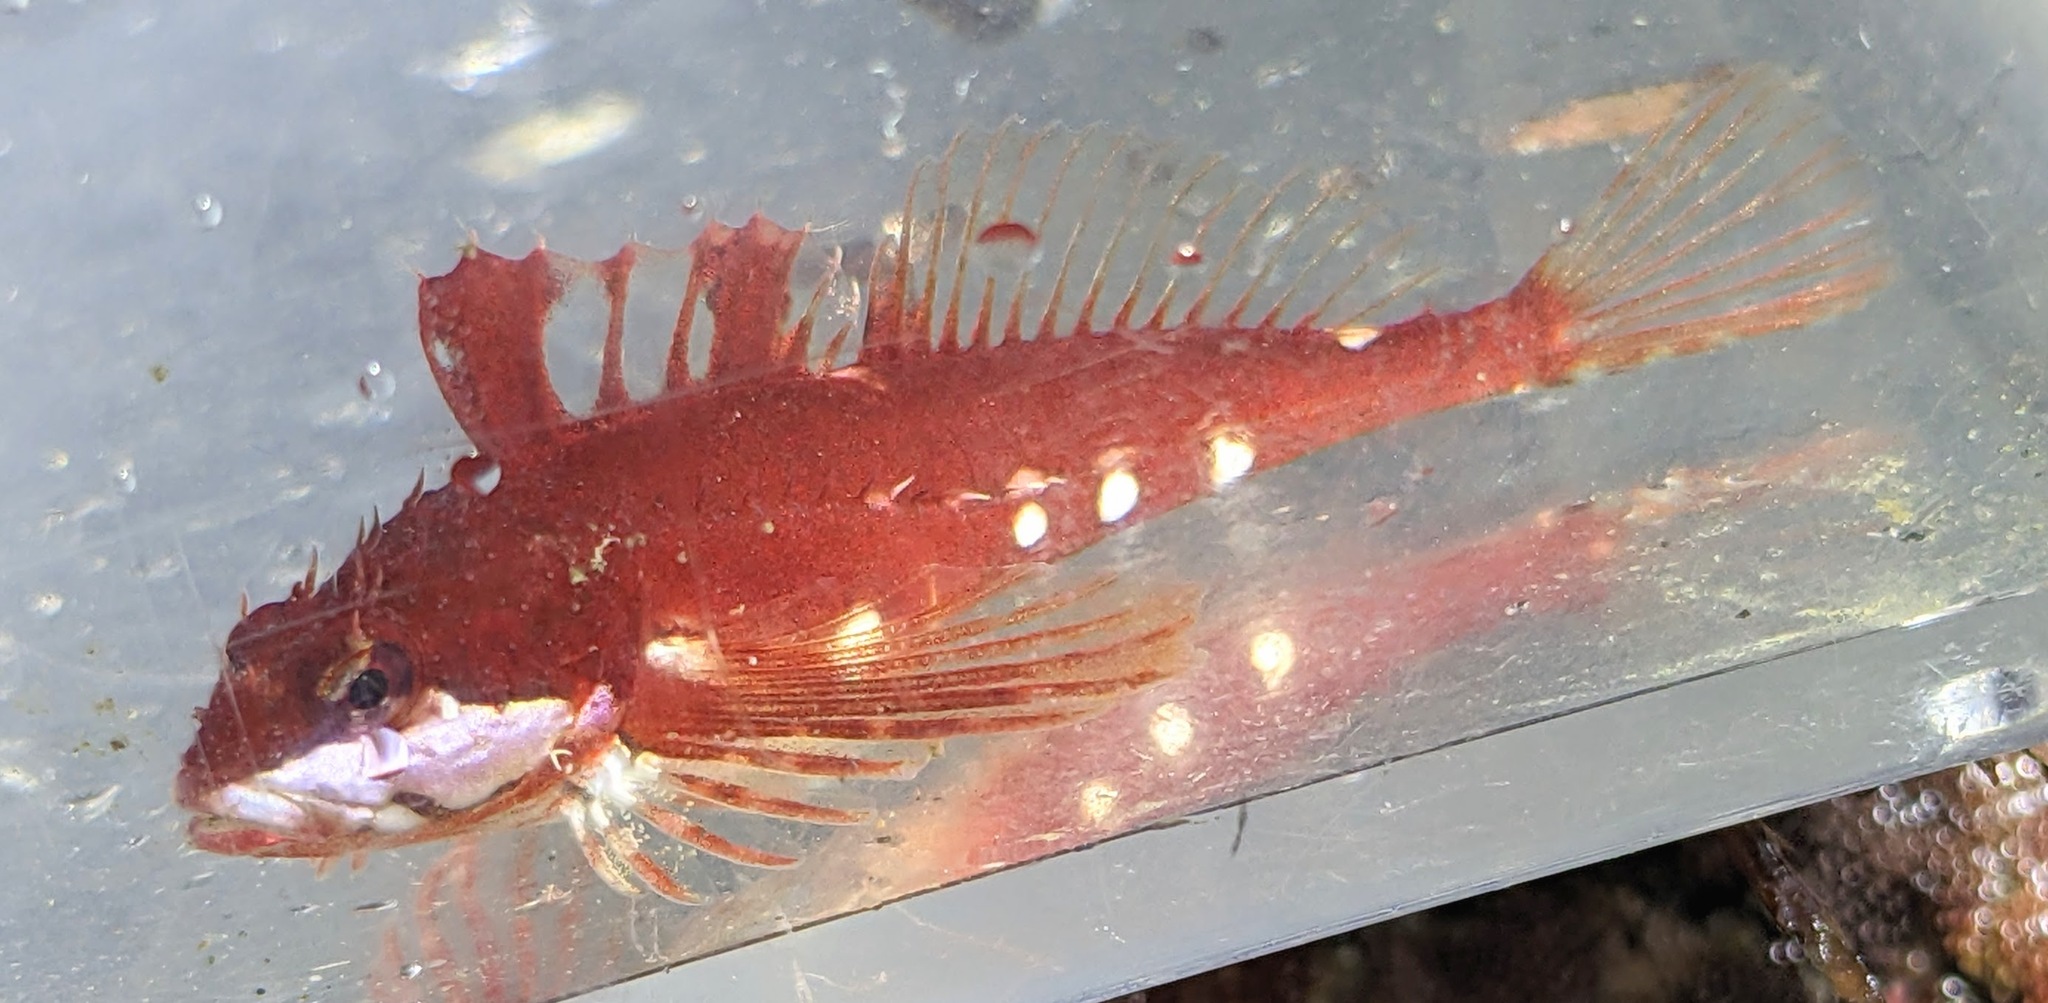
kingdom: Animalia
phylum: Chordata
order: Scorpaeniformes
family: Cottidae
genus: Clinocottus
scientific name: Clinocottus acuticeps
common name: Sharpnose sculpin
